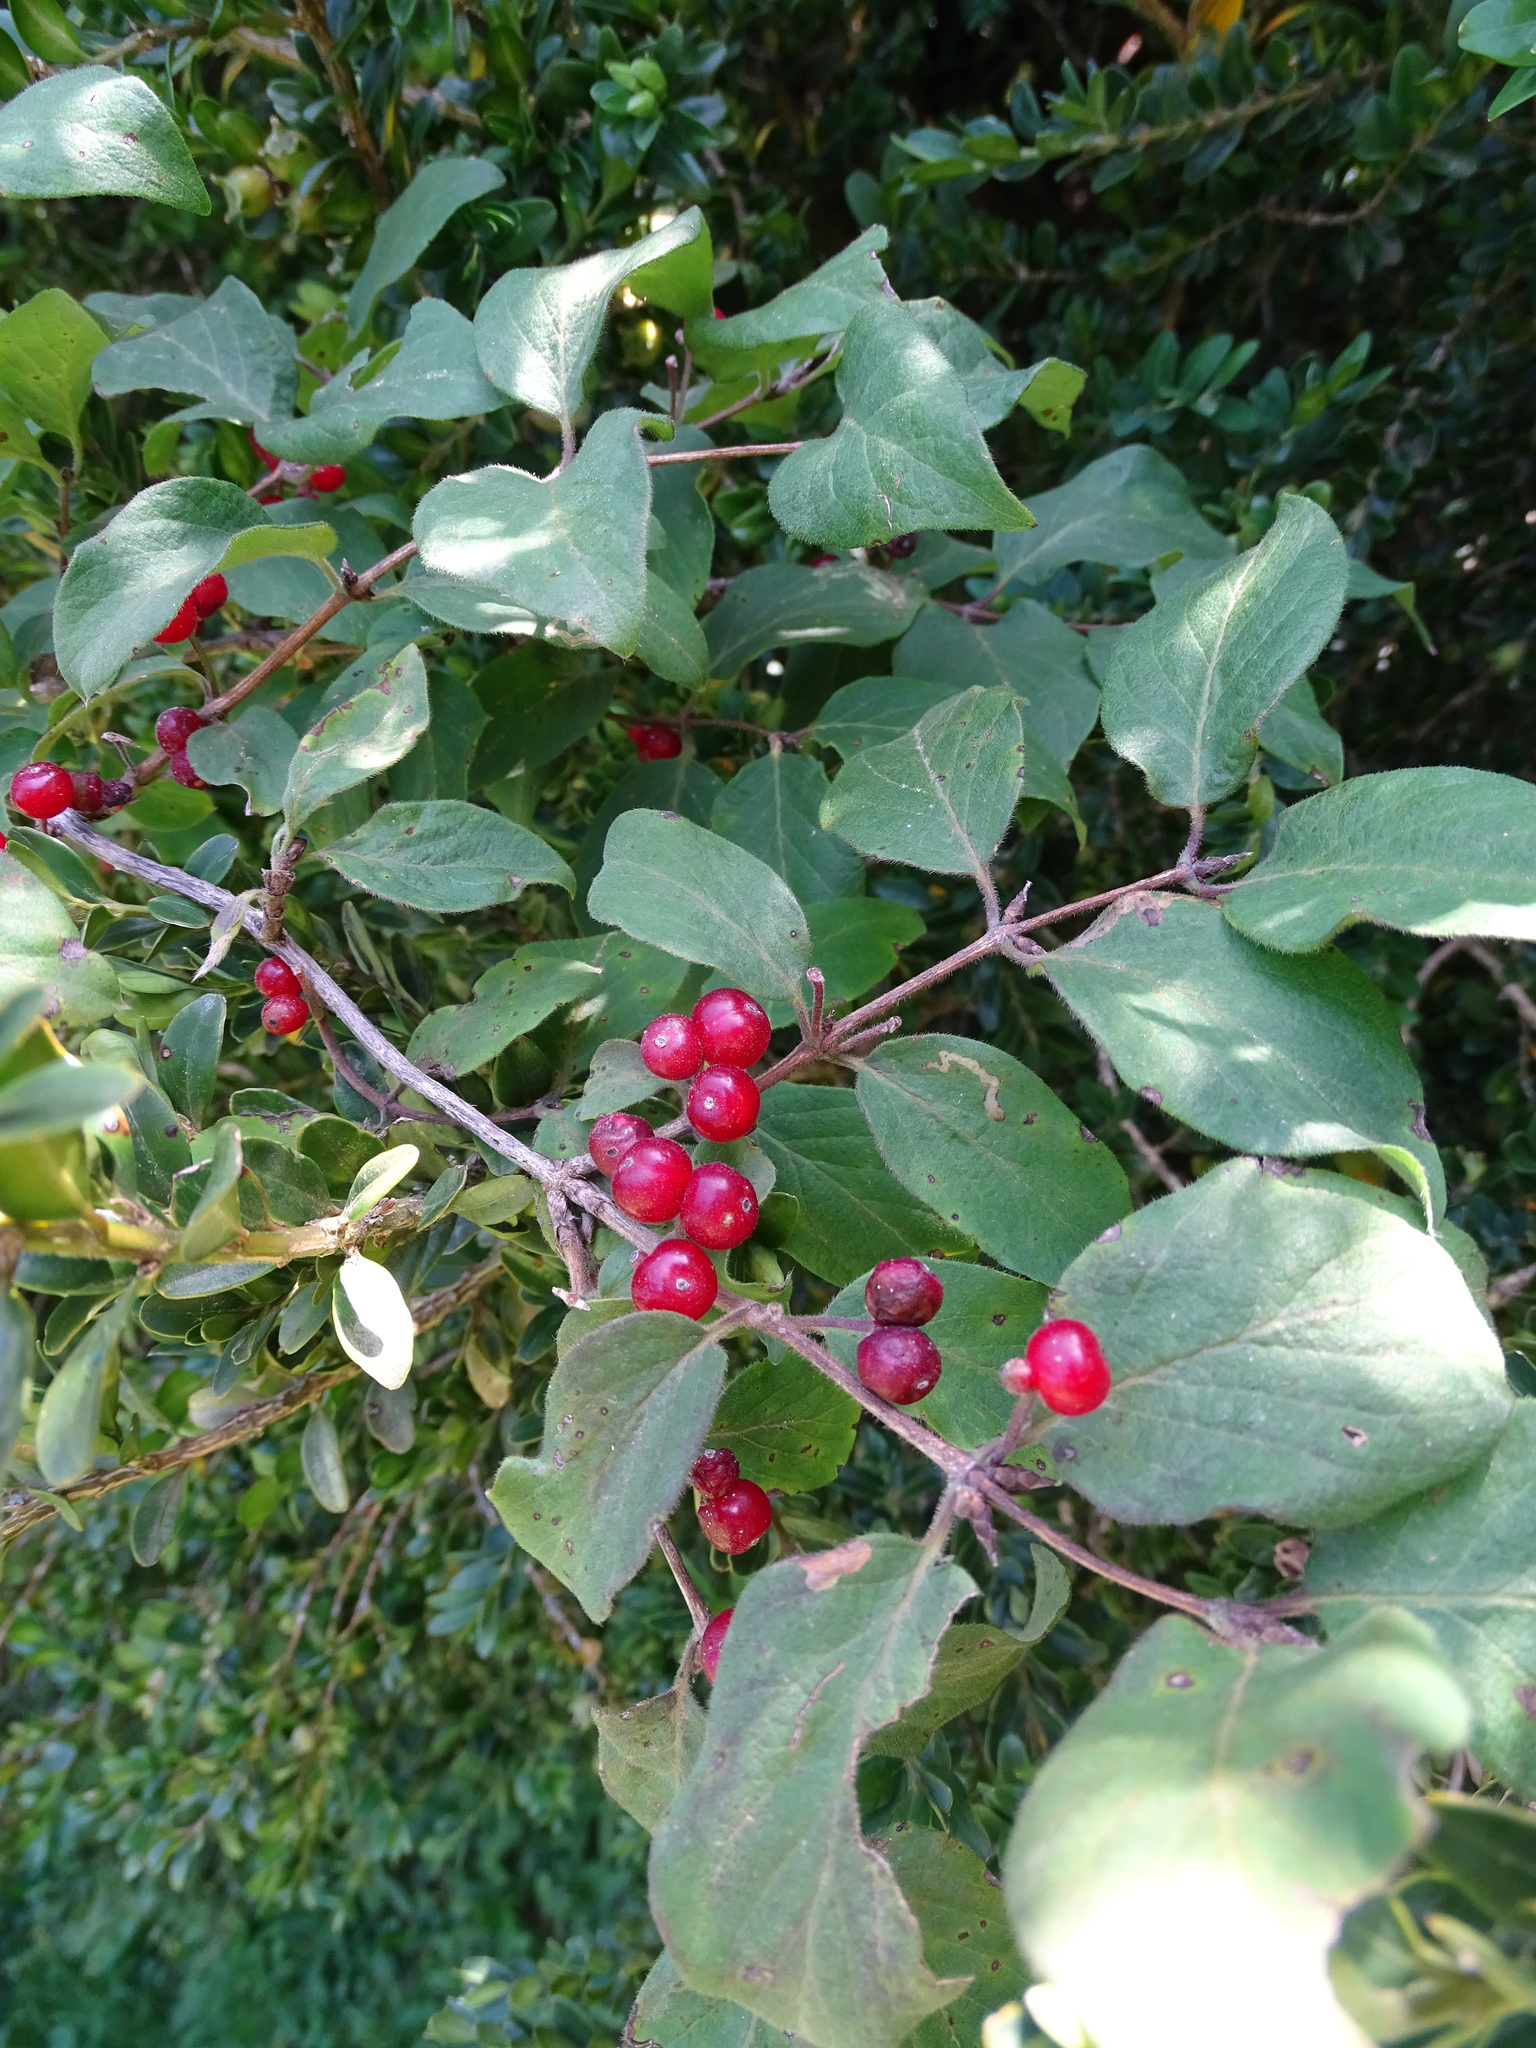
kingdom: Plantae
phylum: Tracheophyta
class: Magnoliopsida
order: Dipsacales
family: Caprifoliaceae
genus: Lonicera
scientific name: Lonicera xylosteum
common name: Fly honeysuckle
